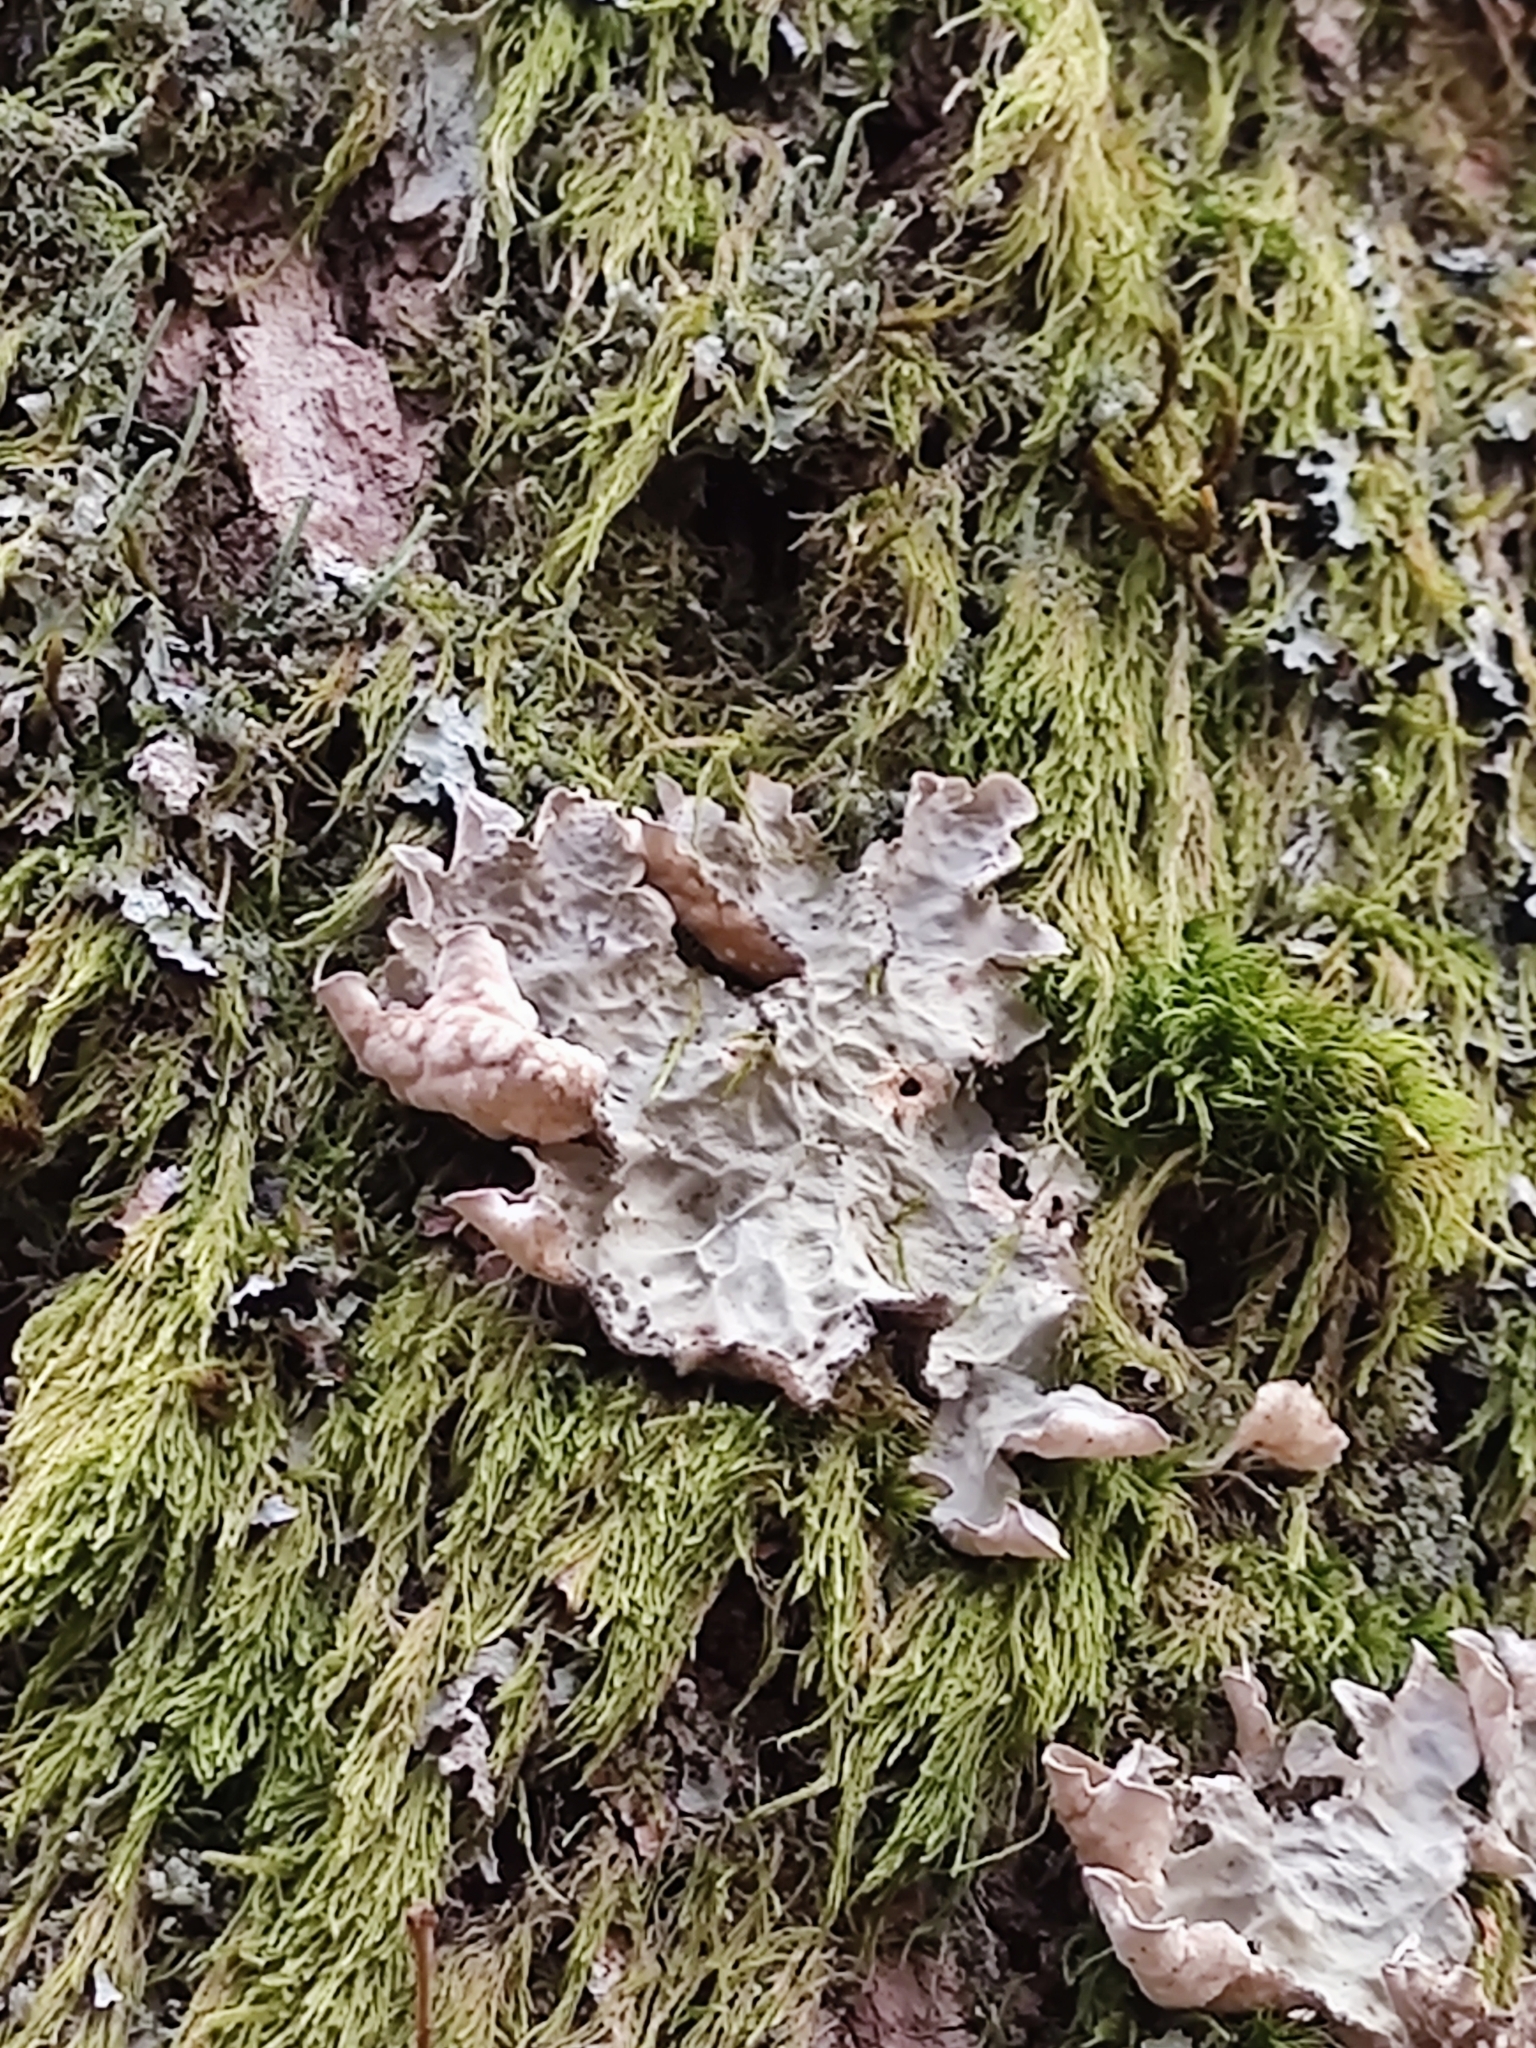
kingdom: Fungi
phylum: Ascomycota
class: Lecanoromycetes
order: Peltigerales
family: Lobariaceae
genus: Lobarina
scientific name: Lobarina scrobiculata
